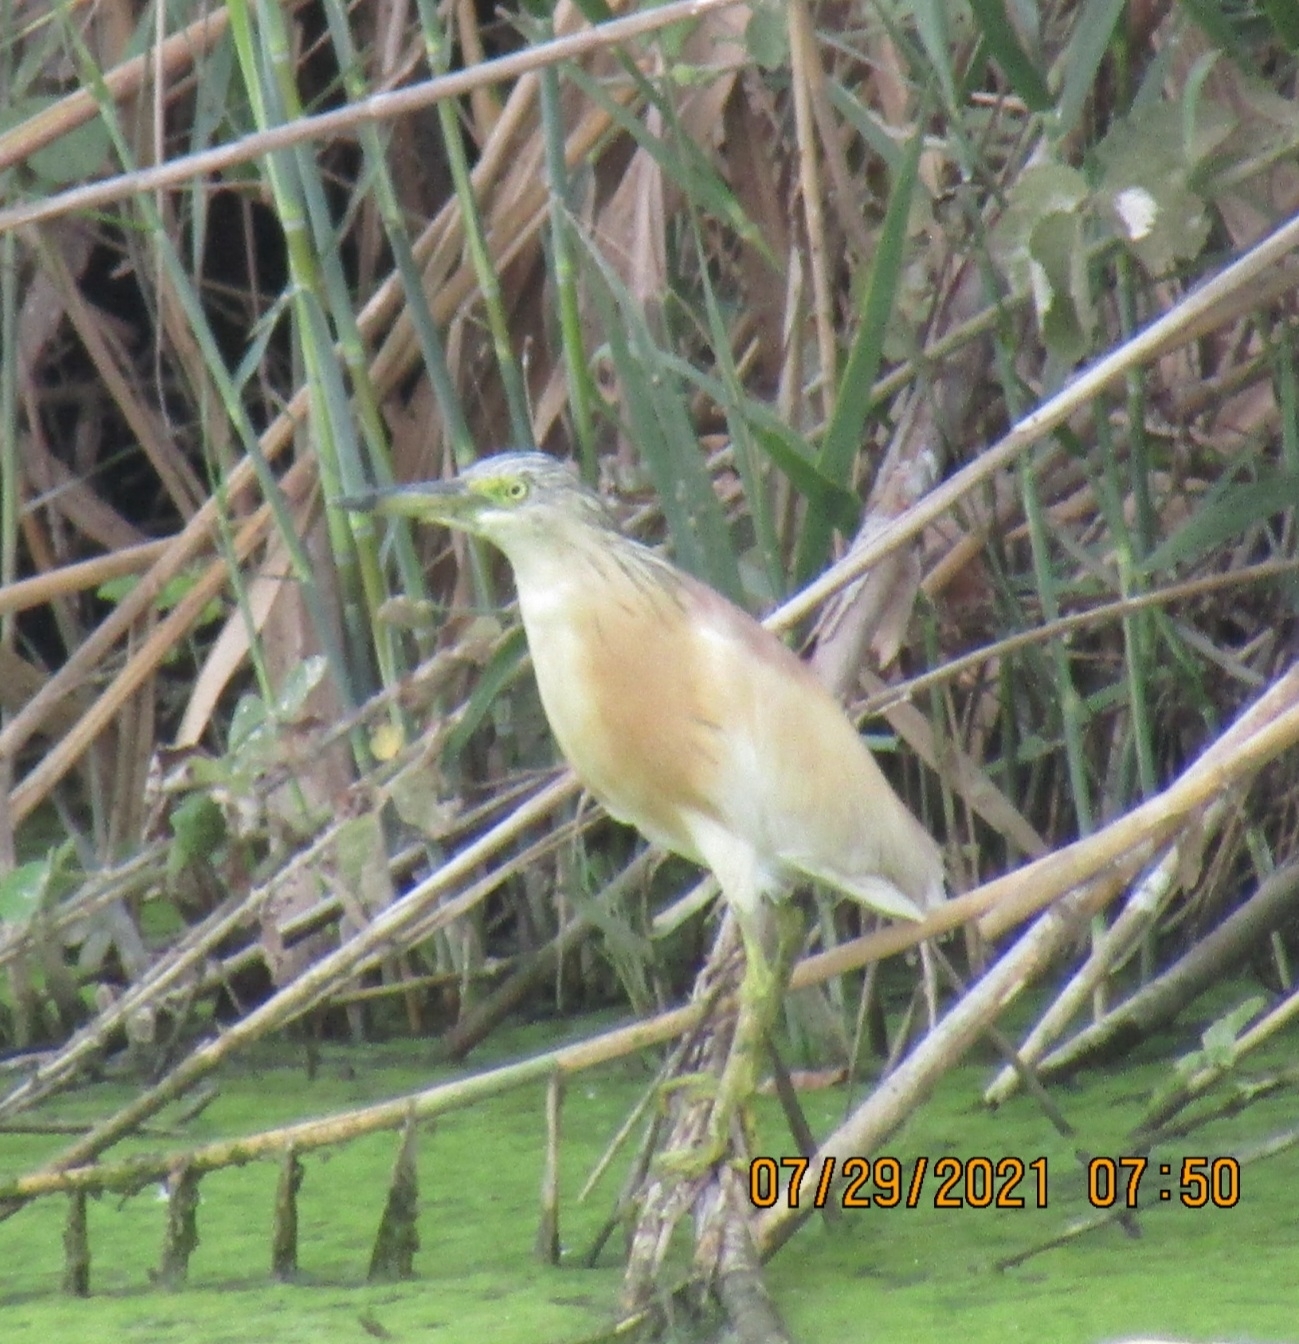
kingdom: Animalia
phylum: Chordata
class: Aves
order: Pelecaniformes
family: Ardeidae
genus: Ardeola
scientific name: Ardeola ralloides
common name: Squacco heron
